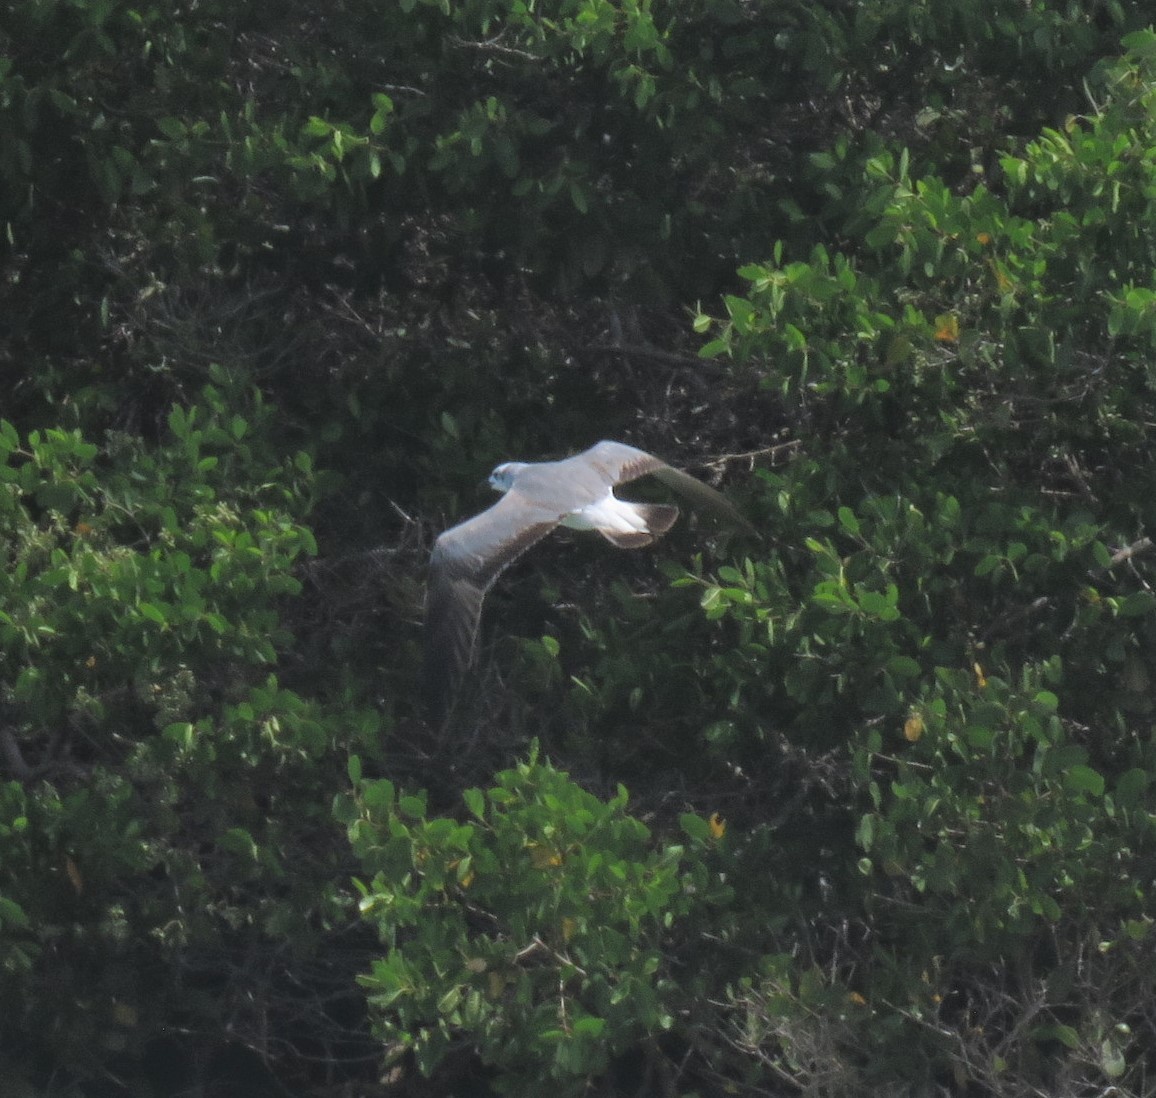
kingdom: Animalia
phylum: Chordata
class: Aves
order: Charadriiformes
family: Laridae
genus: Leucophaeus
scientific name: Leucophaeus atricilla
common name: Laughing gull
